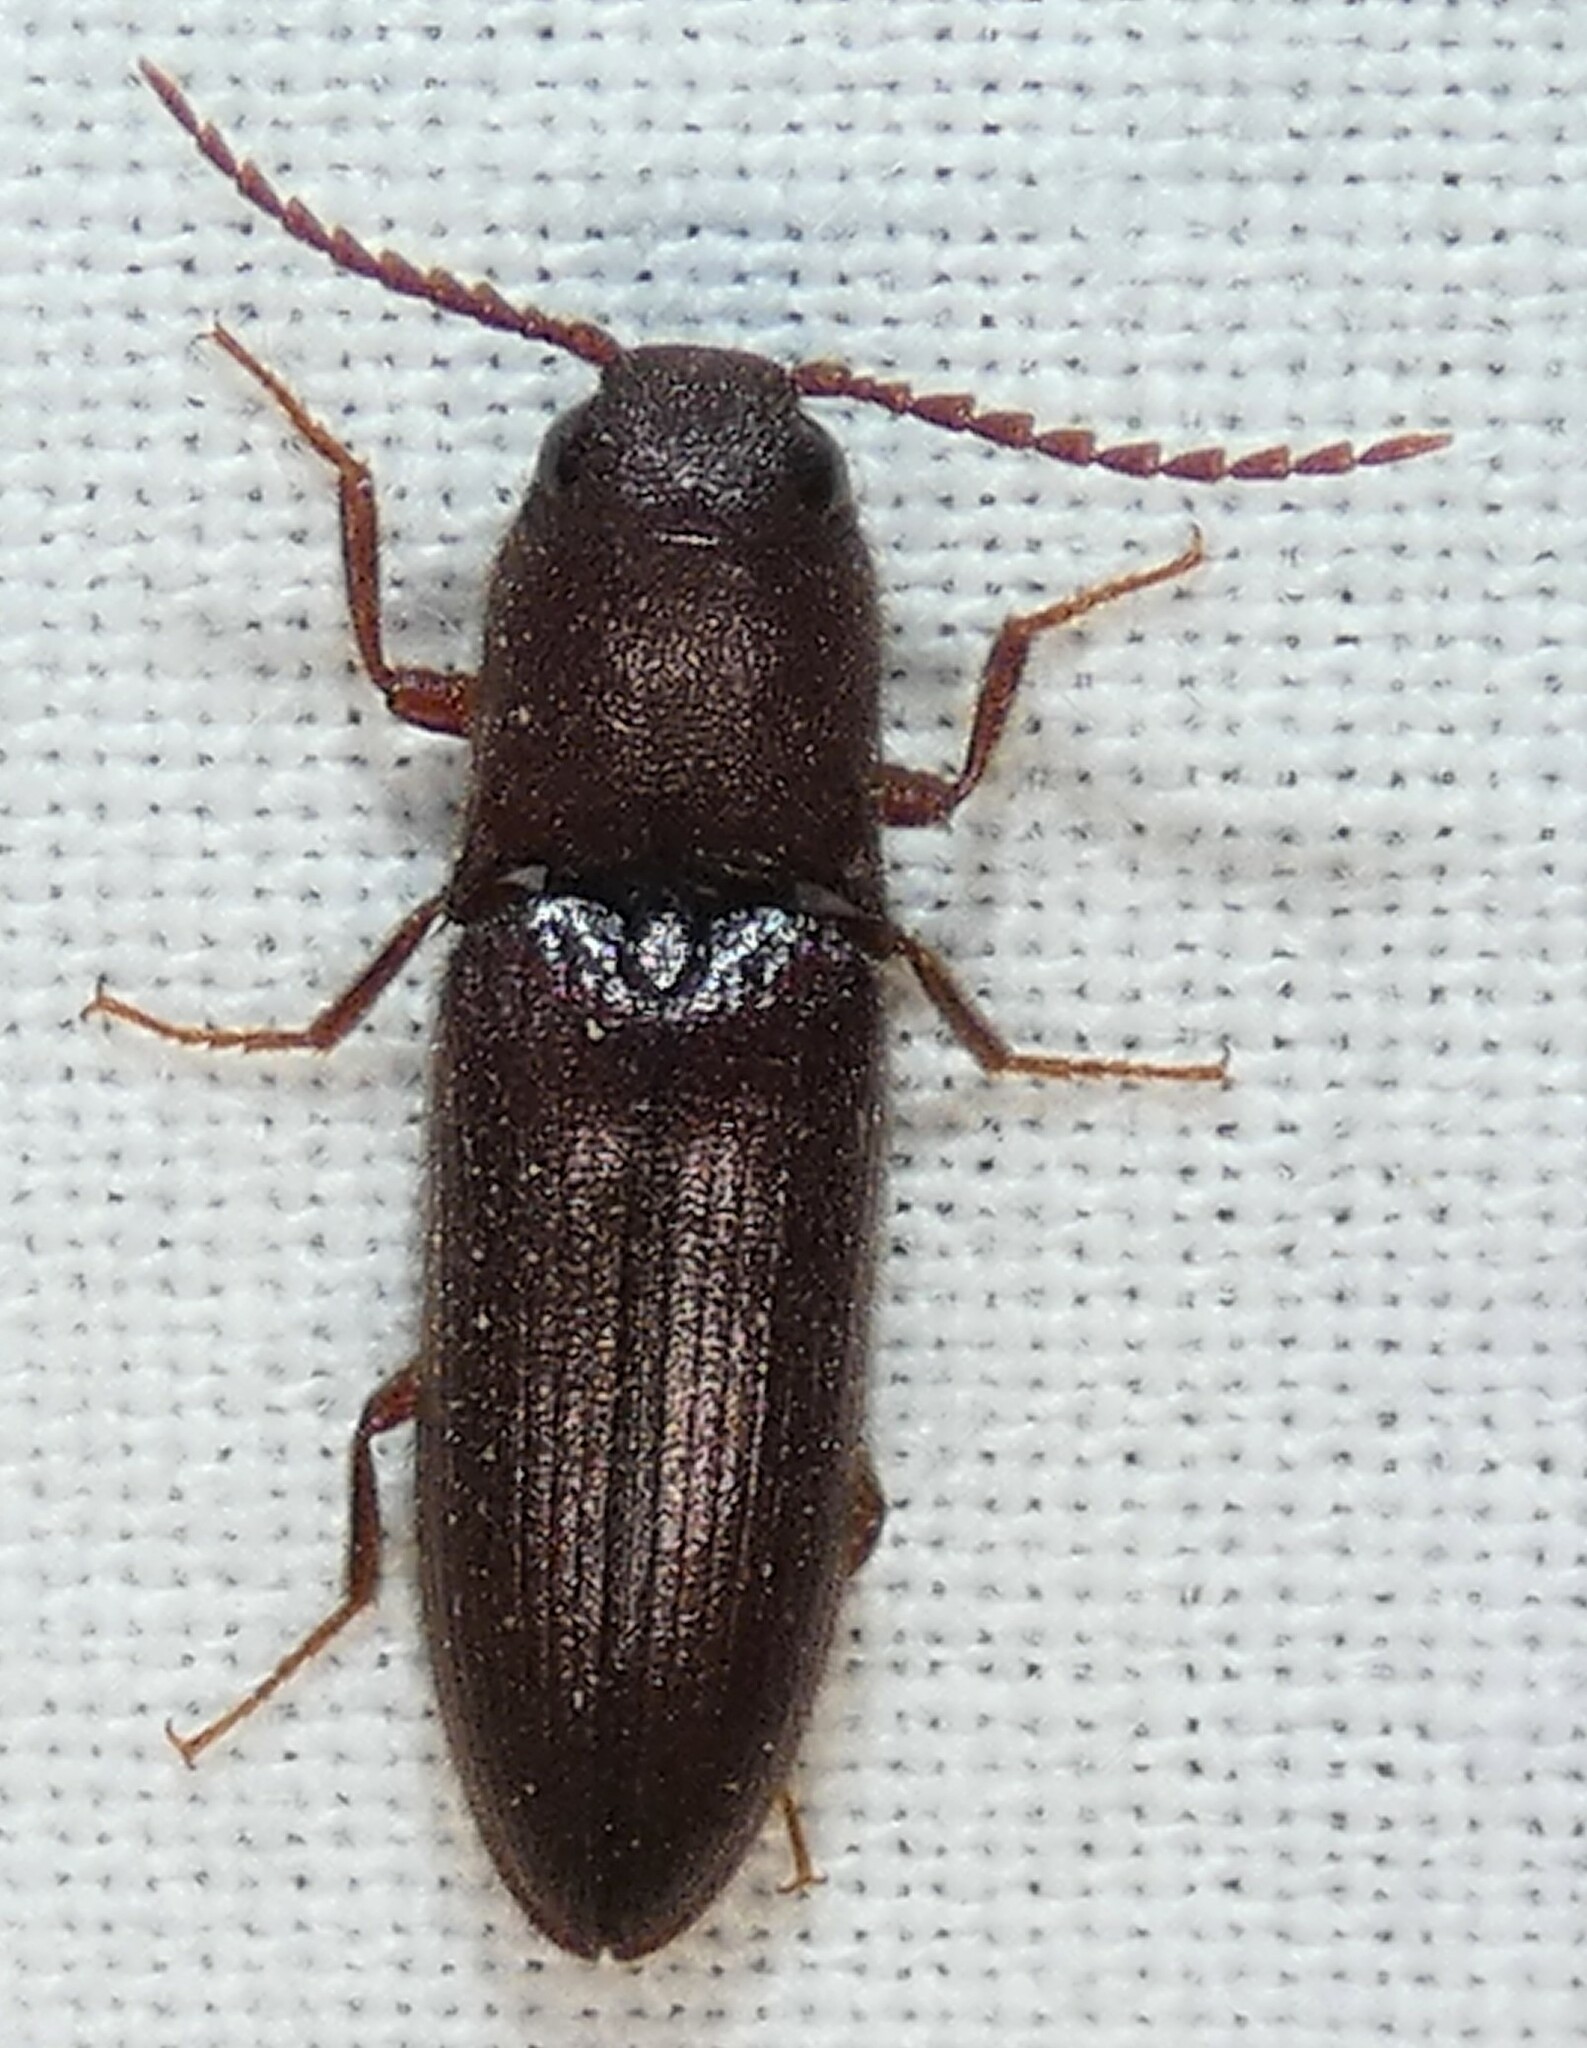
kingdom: Animalia
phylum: Arthropoda
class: Insecta
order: Coleoptera
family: Elateridae
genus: Blauta
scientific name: Blauta
